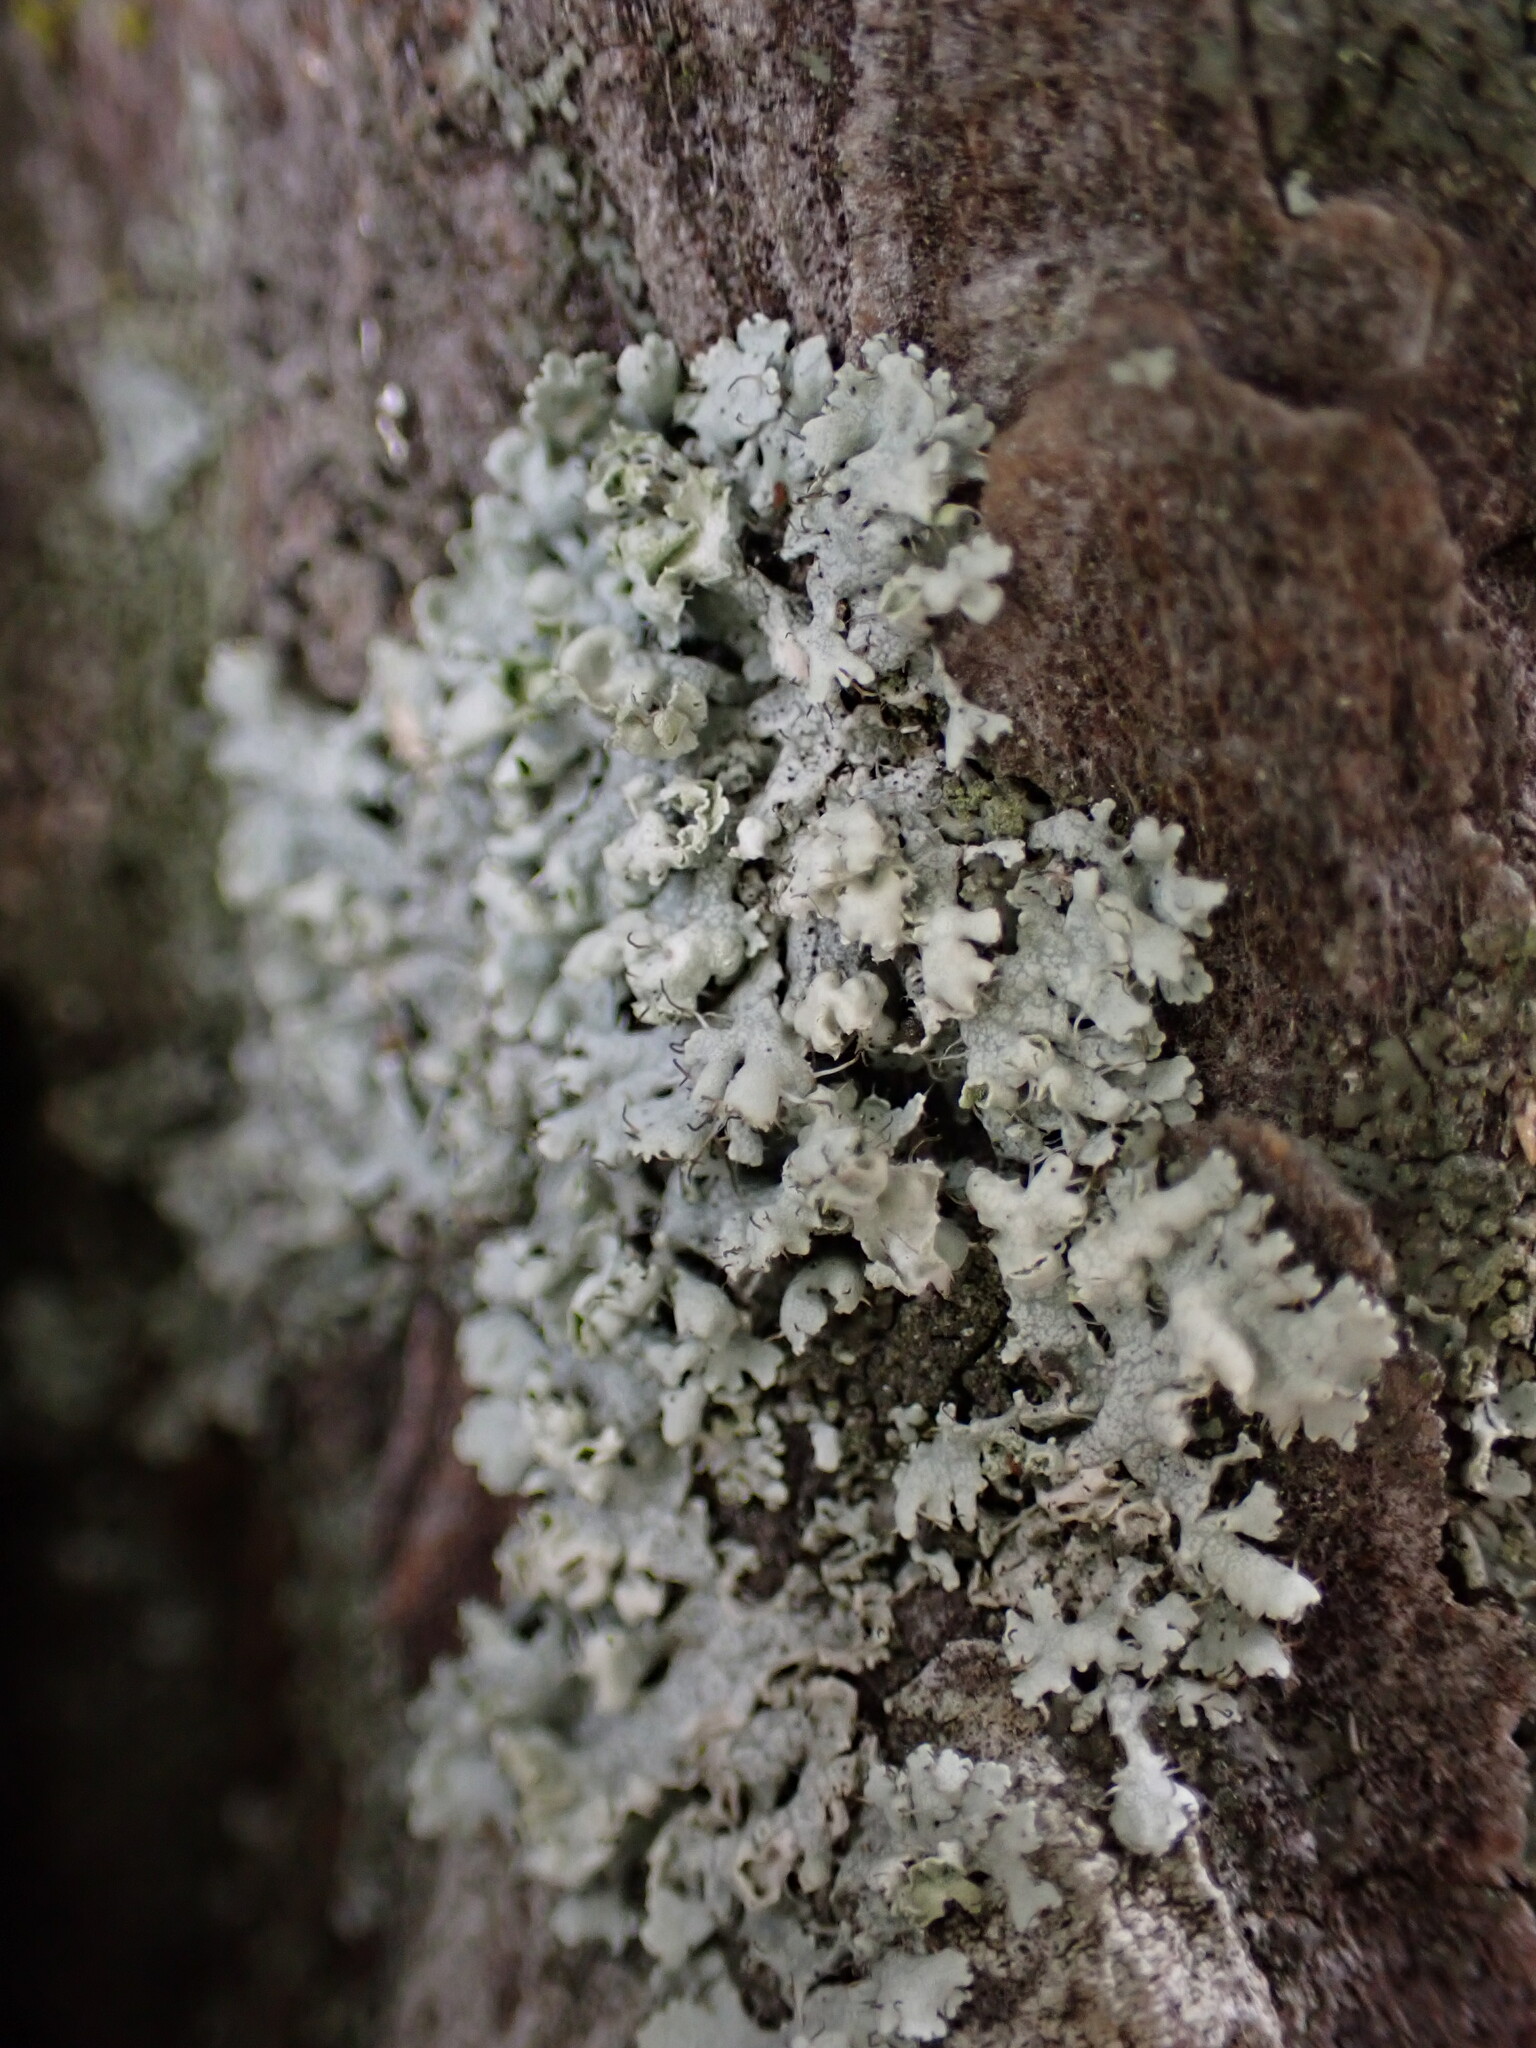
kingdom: Fungi
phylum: Ascomycota
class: Lecanoromycetes
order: Caliciales
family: Physciaceae
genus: Physcia
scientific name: Physcia adscendens
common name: Hooded rosette lichen
